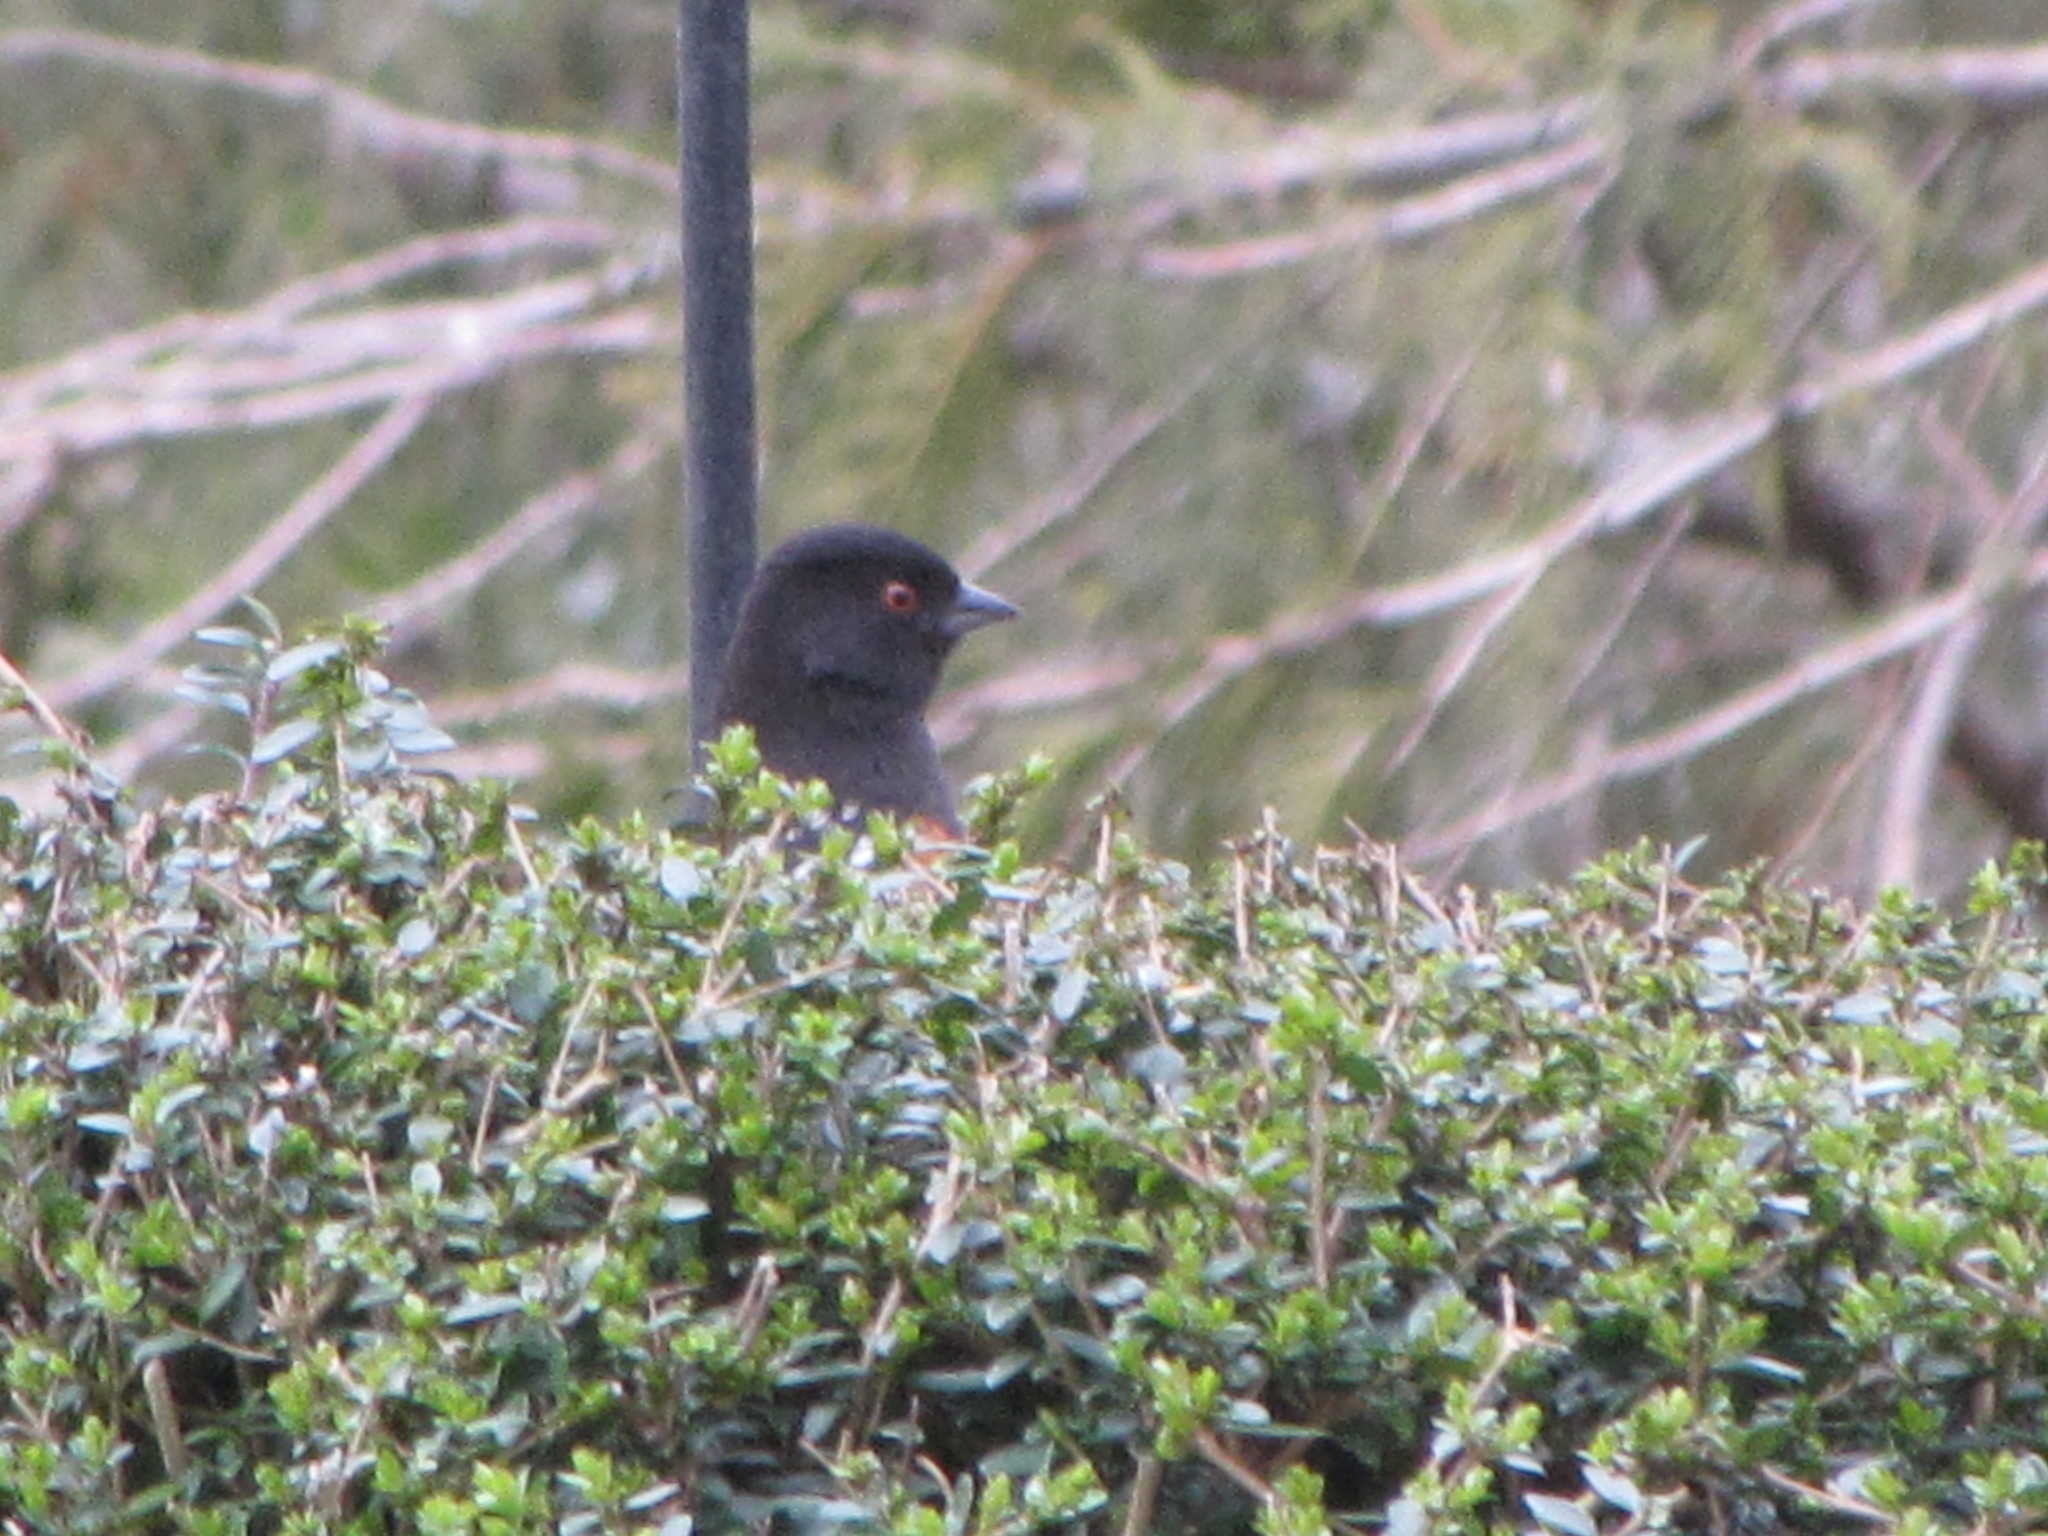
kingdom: Animalia
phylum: Chordata
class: Aves
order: Passeriformes
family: Passerellidae
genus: Pipilo
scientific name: Pipilo maculatus
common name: Spotted towhee
